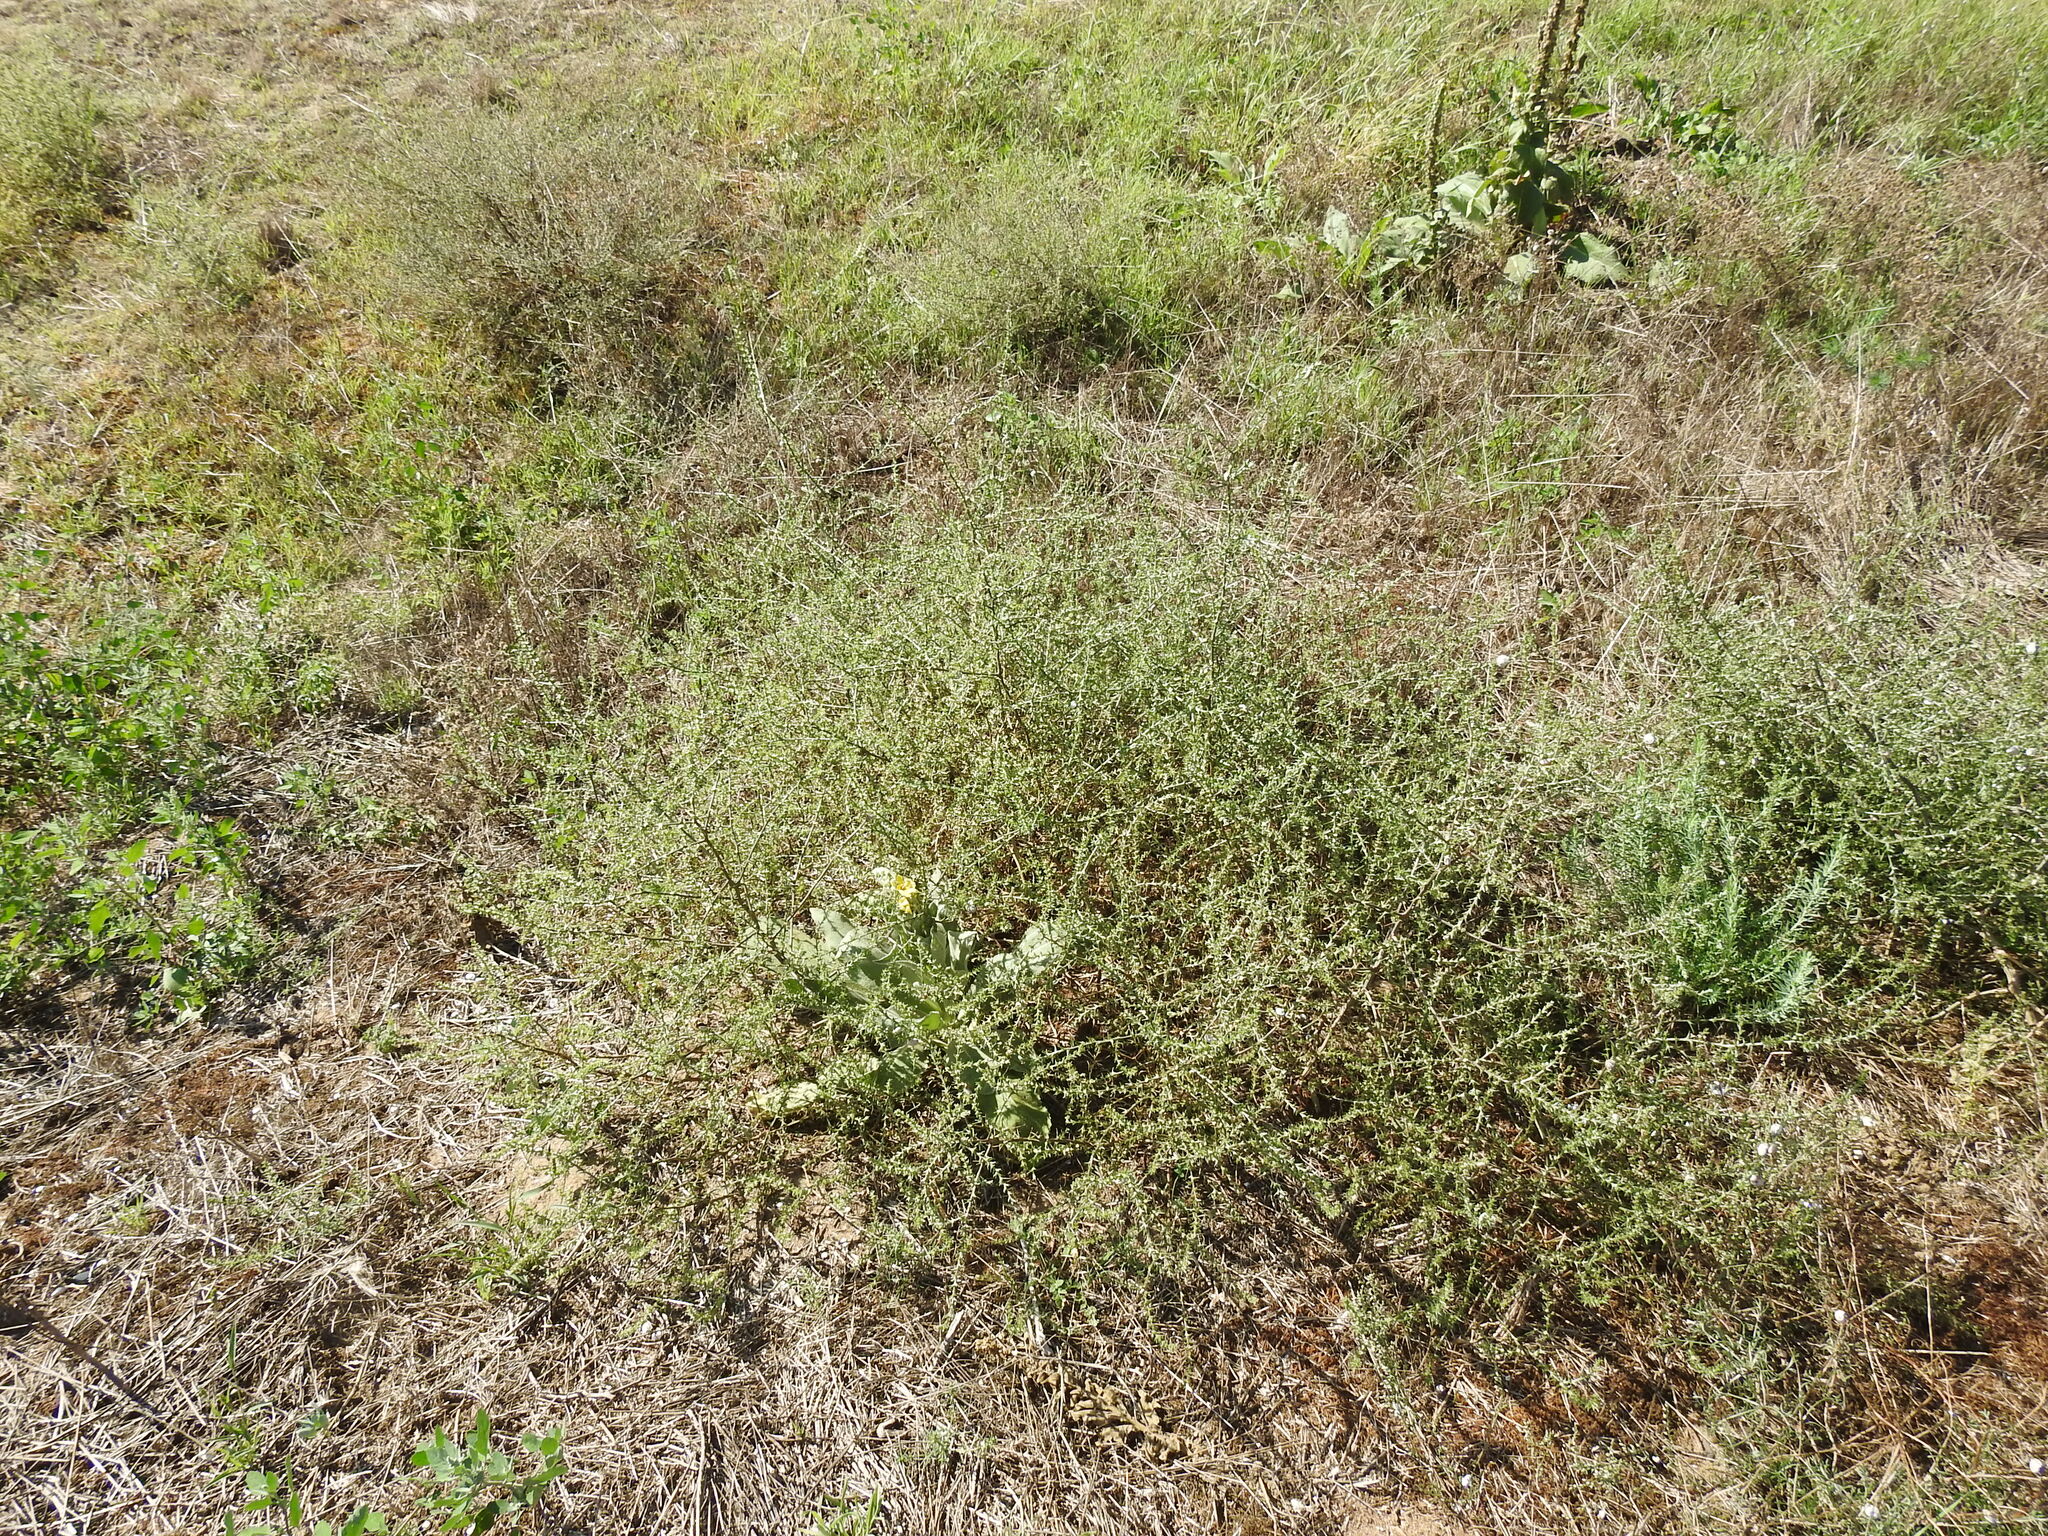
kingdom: Plantae
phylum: Tracheophyta
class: Magnoliopsida
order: Caryophyllales
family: Amaranthaceae
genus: Salsola
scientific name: Salsola tragus
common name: Prickly russian thistle
